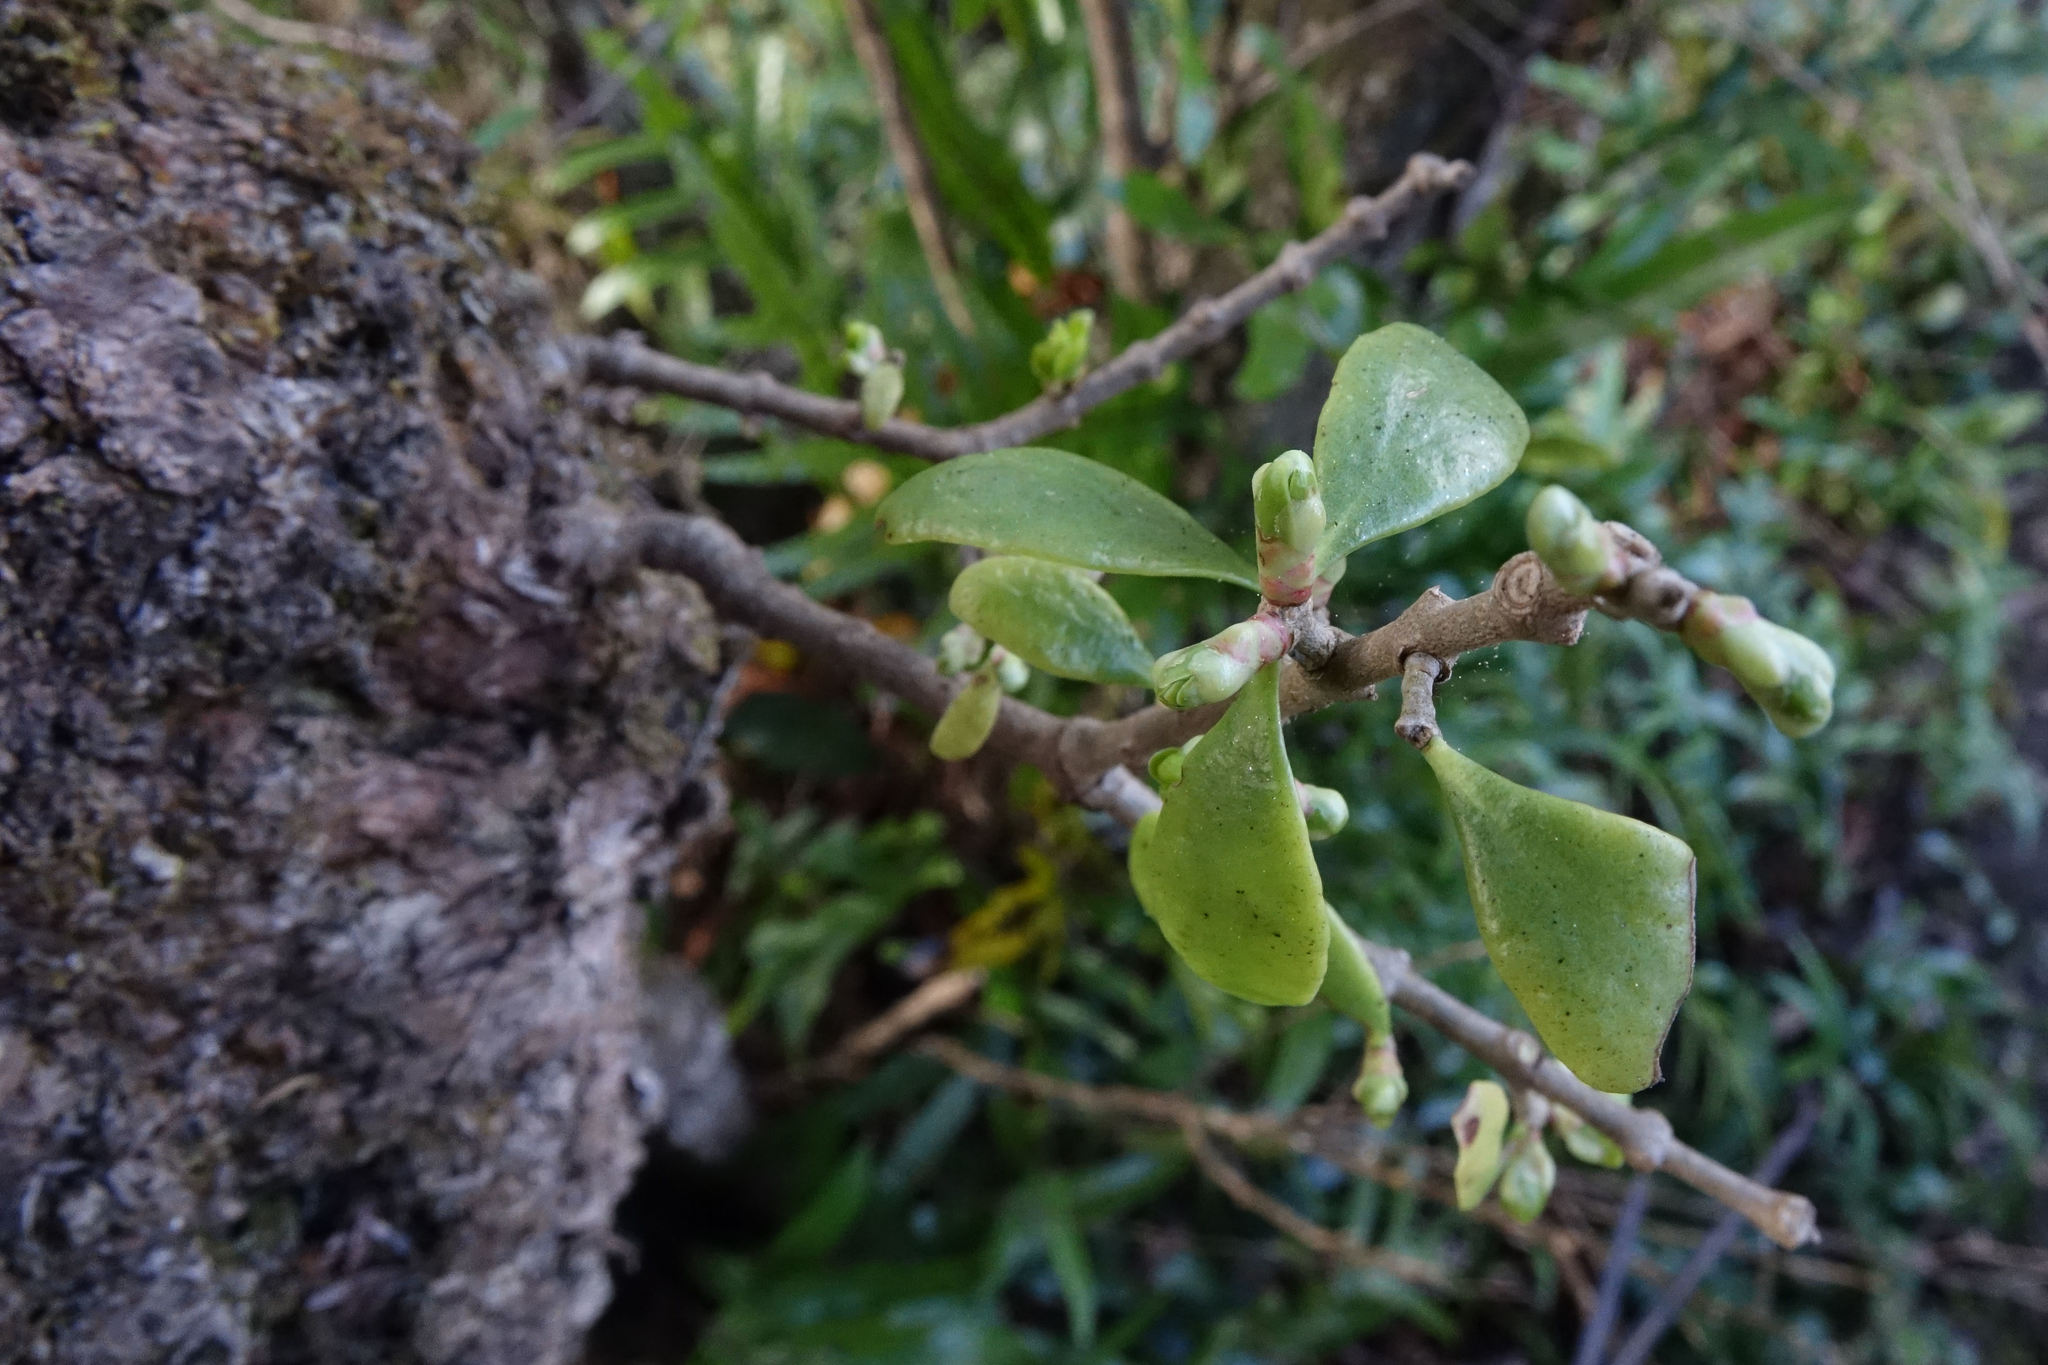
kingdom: Plantae
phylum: Tracheophyta
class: Magnoliopsida
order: Santalales
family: Loranthaceae
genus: Tupeia
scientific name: Tupeia antarctica
